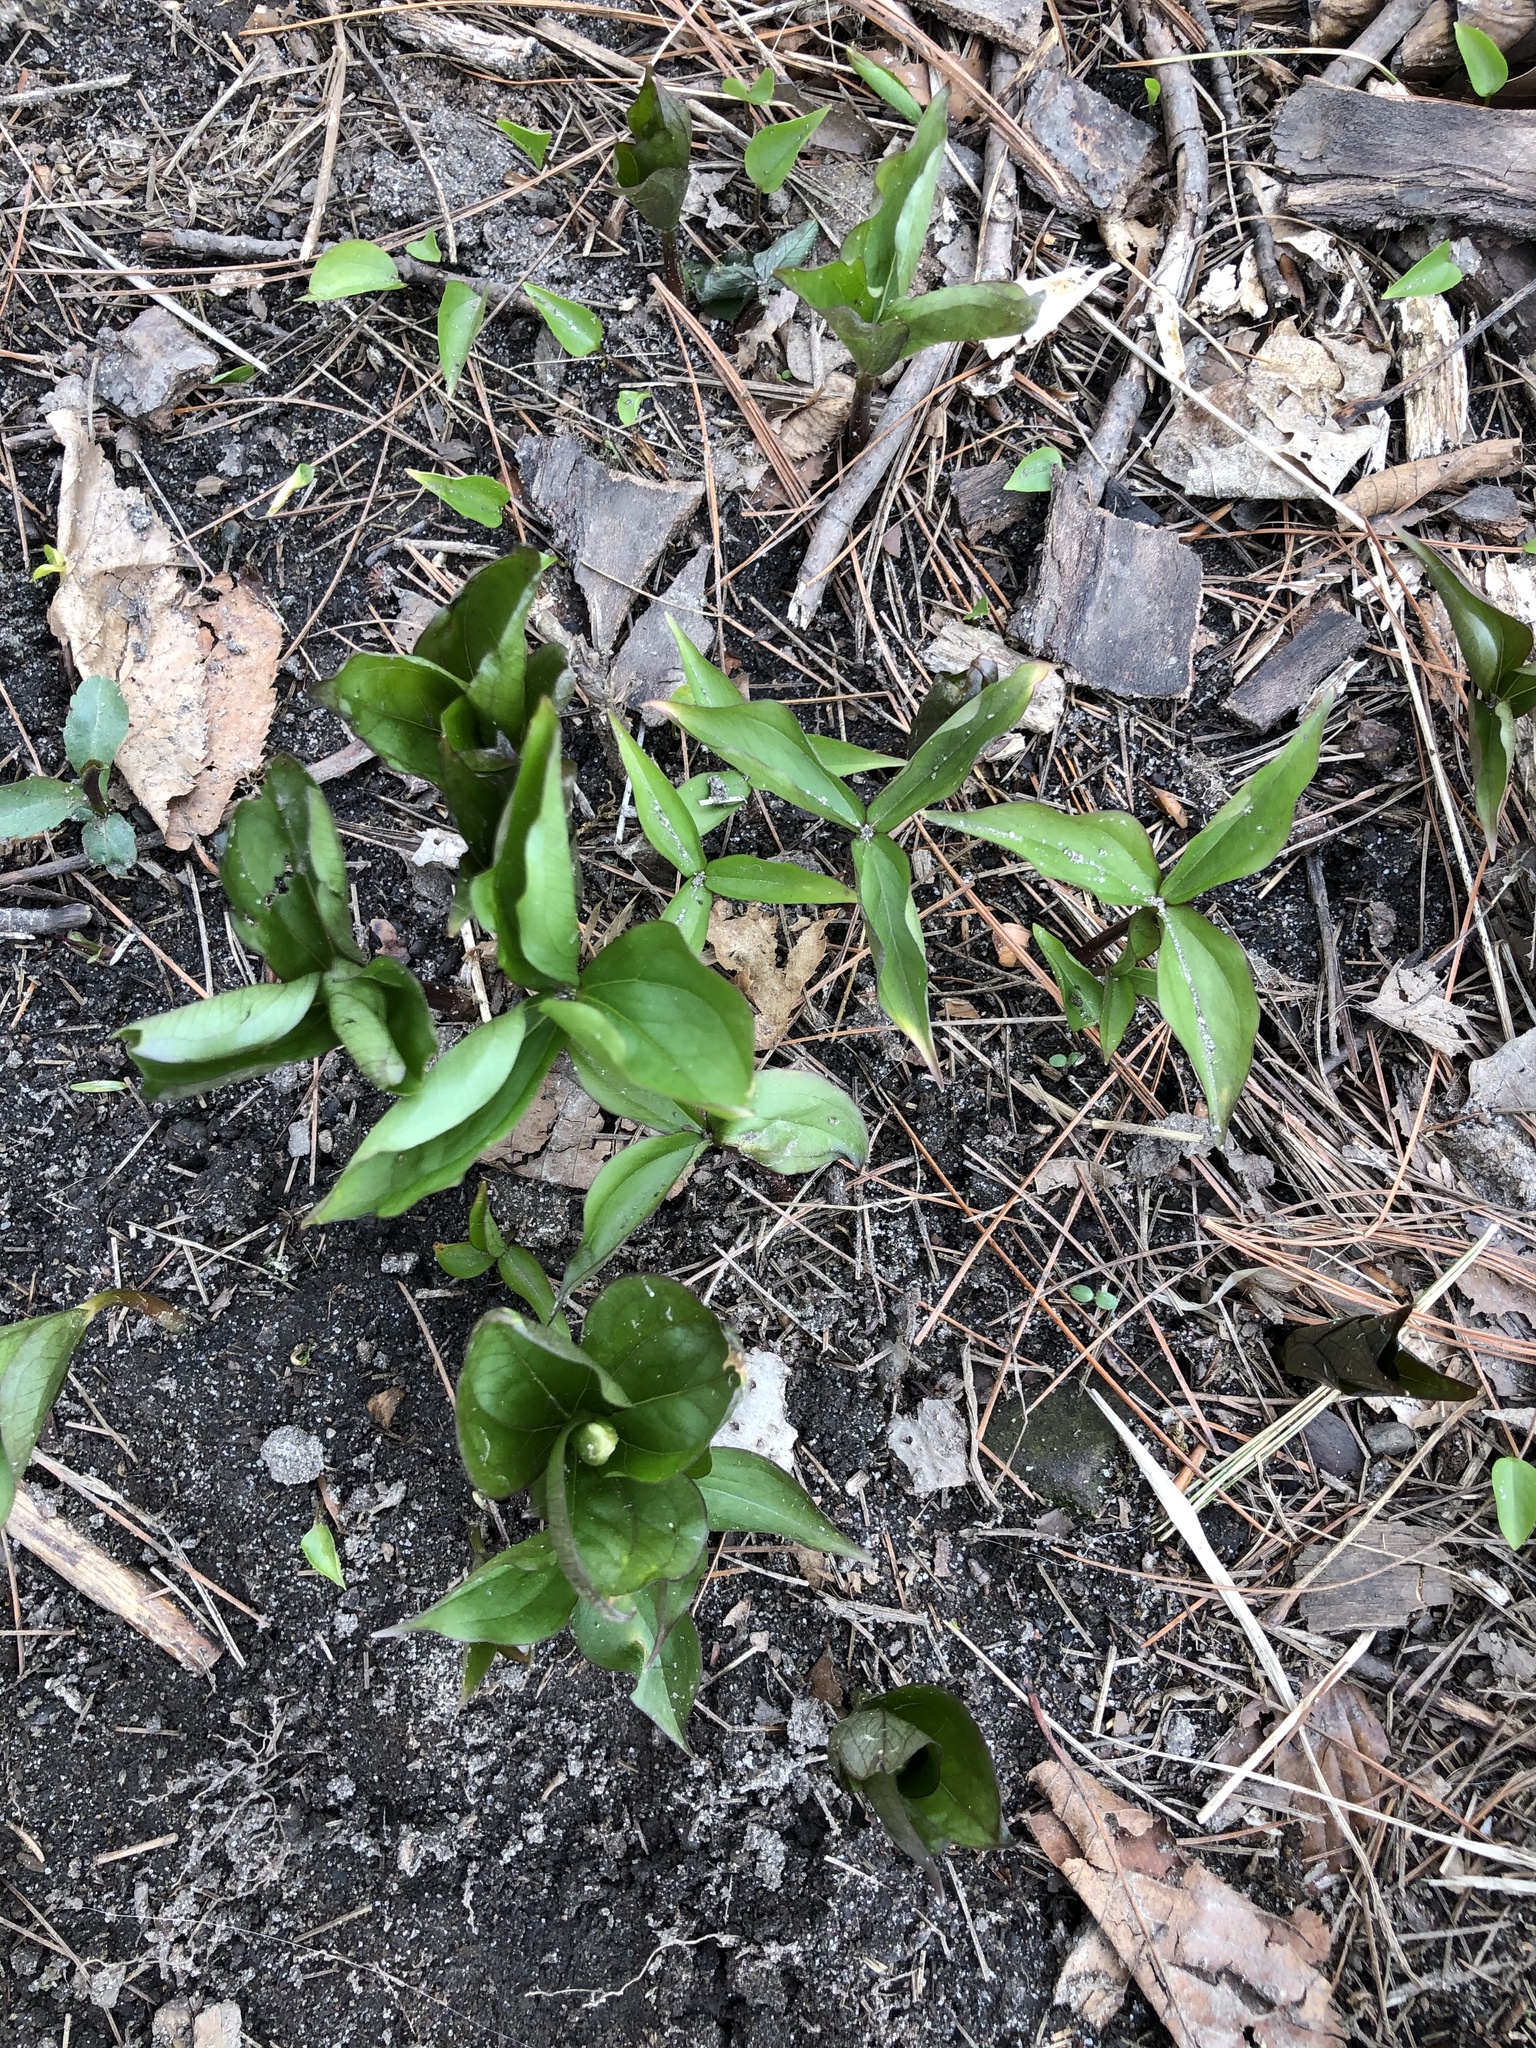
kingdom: Plantae
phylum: Tracheophyta
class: Liliopsida
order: Liliales
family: Melanthiaceae
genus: Trillium
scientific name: Trillium grandiflorum
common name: Great white trillium
